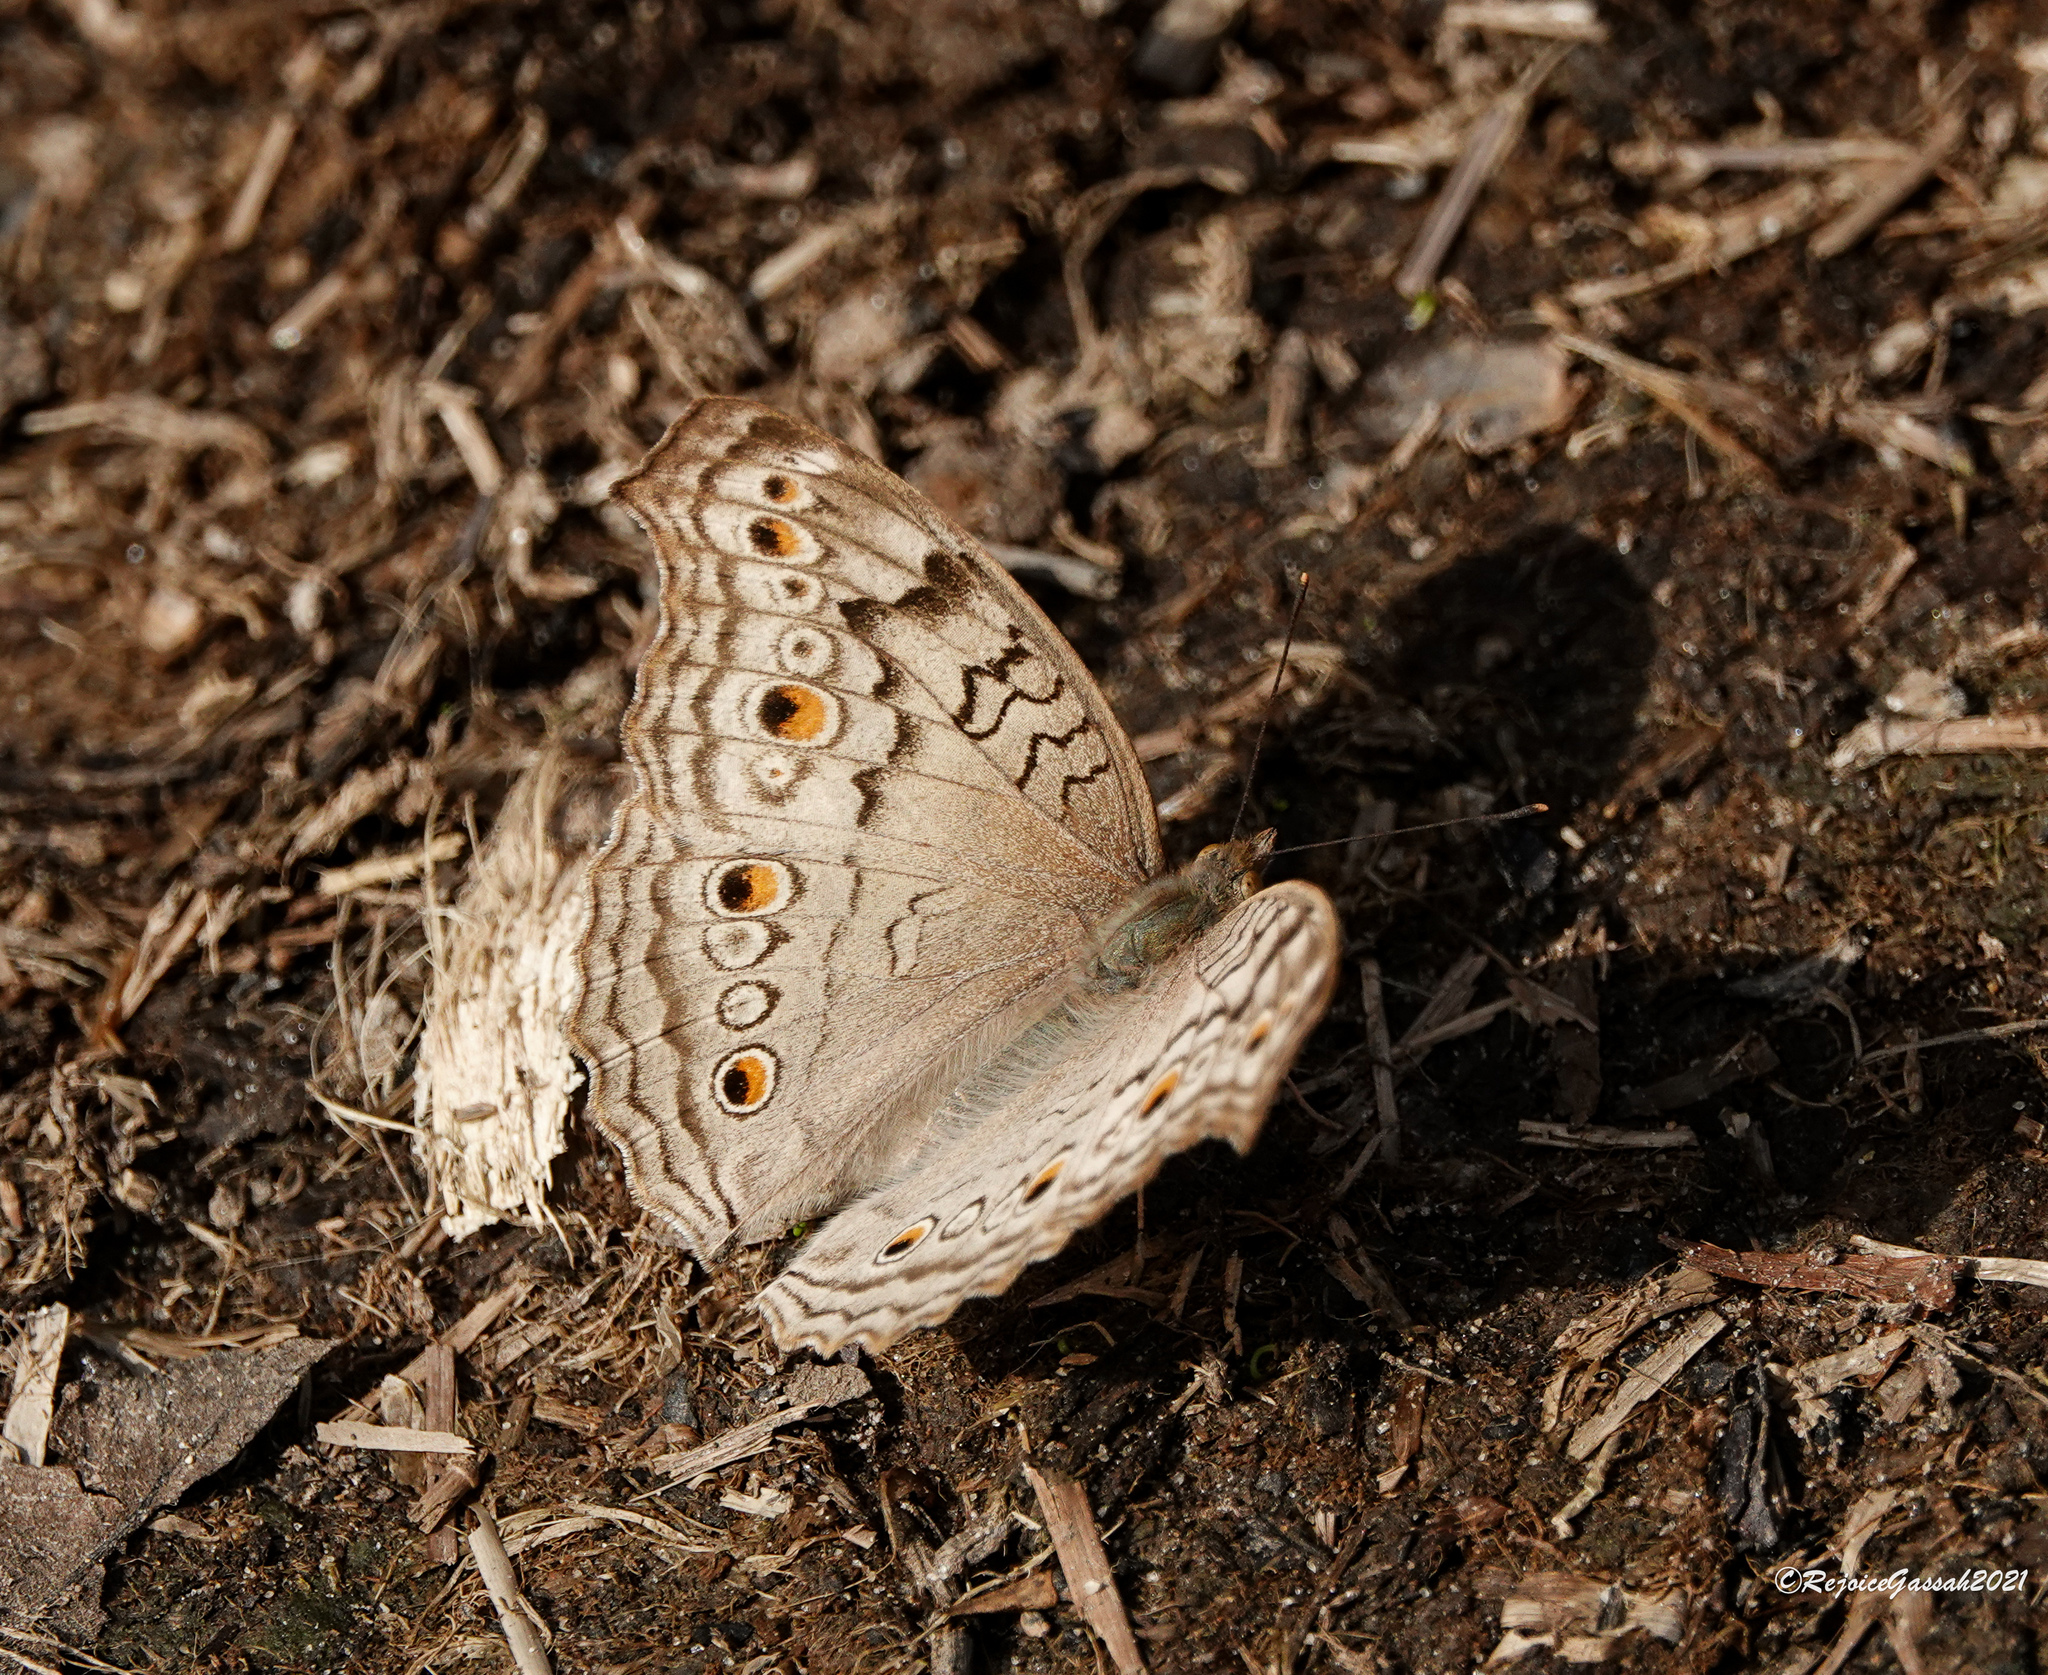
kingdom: Animalia
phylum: Arthropoda
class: Insecta
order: Lepidoptera
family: Nymphalidae
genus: Junonia
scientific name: Junonia atlites
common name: Grey pansy
